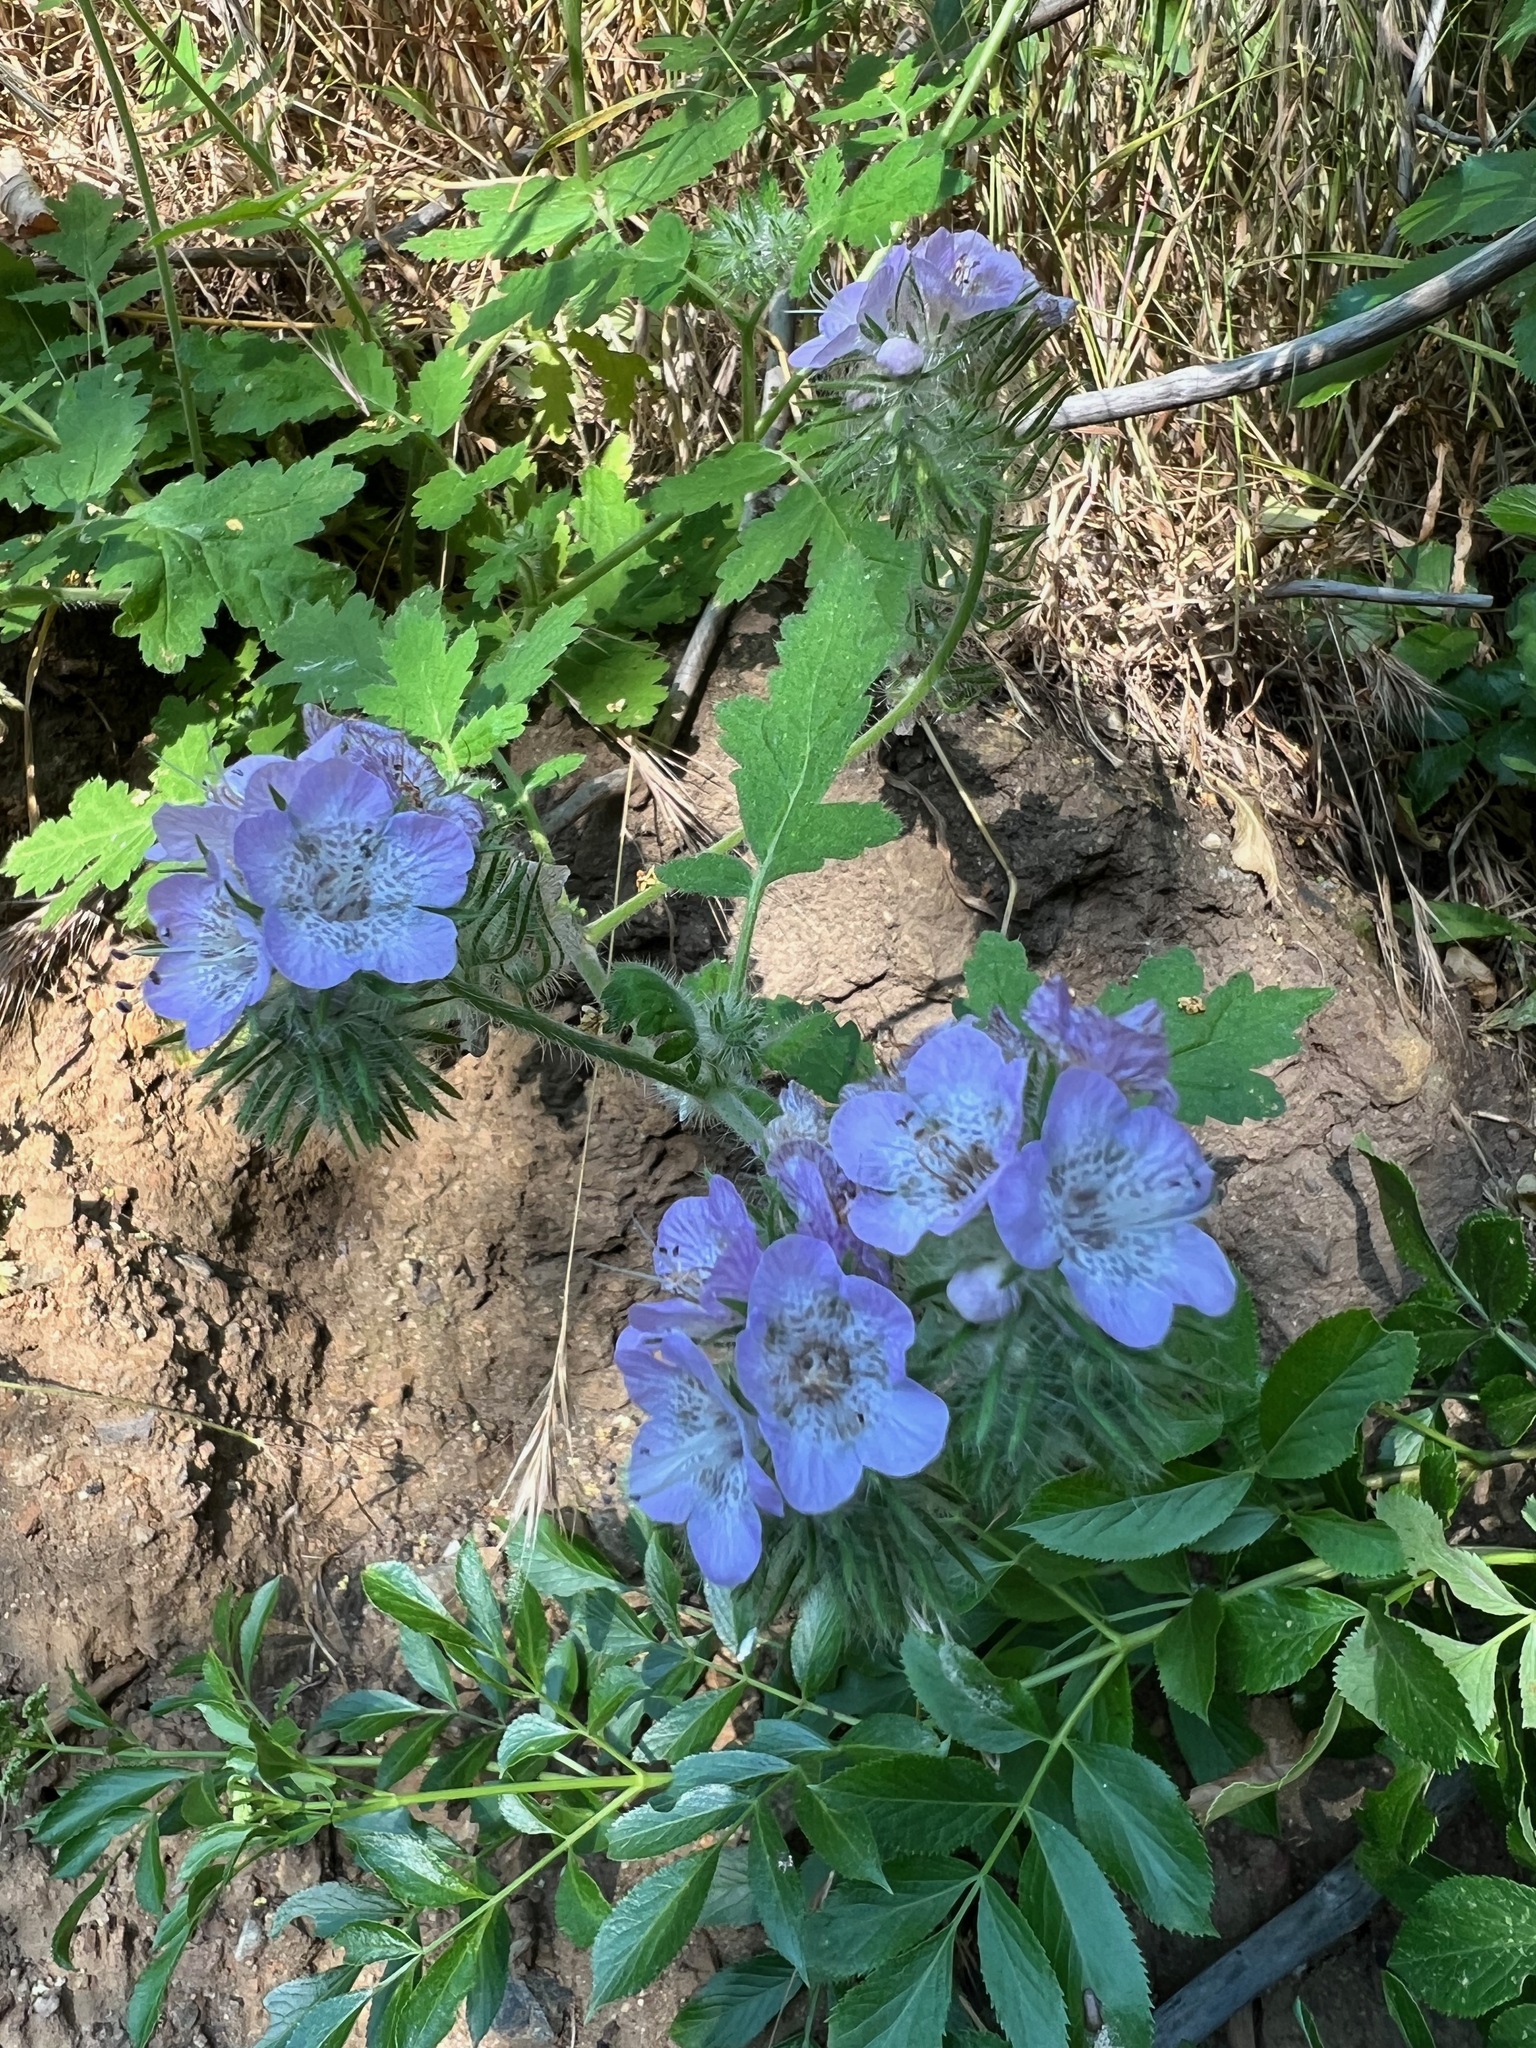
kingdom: Plantae
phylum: Tracheophyta
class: Magnoliopsida
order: Boraginales
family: Hydrophyllaceae
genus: Phacelia
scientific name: Phacelia cicutaria
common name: Caterpillar phacelia
